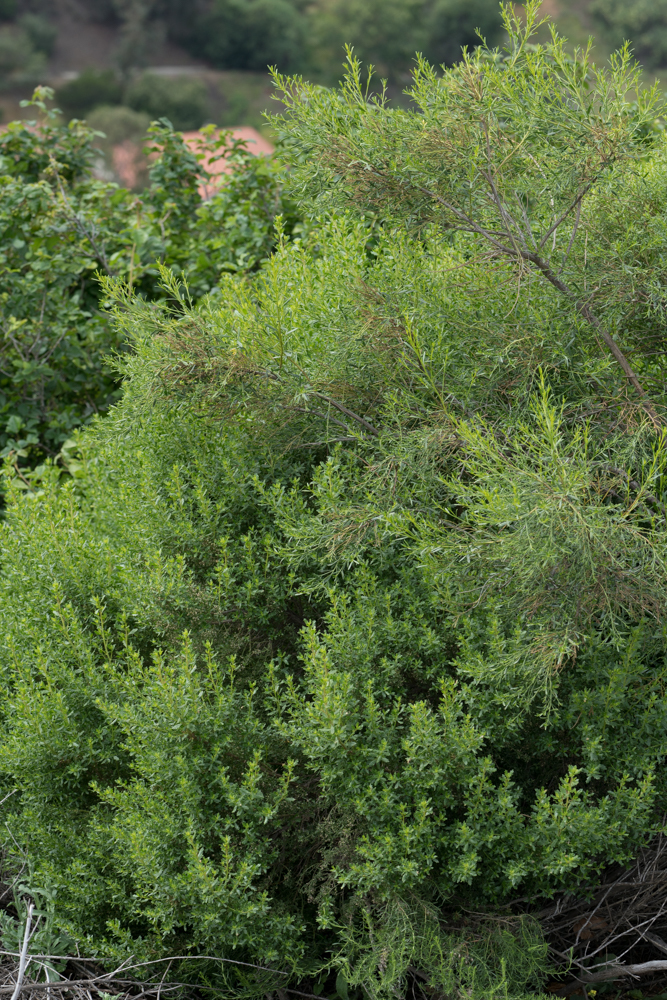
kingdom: Plantae
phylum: Tracheophyta
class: Magnoliopsida
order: Asterales
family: Asteraceae
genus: Baccharis
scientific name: Baccharis pilularis
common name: Coyotebrush
